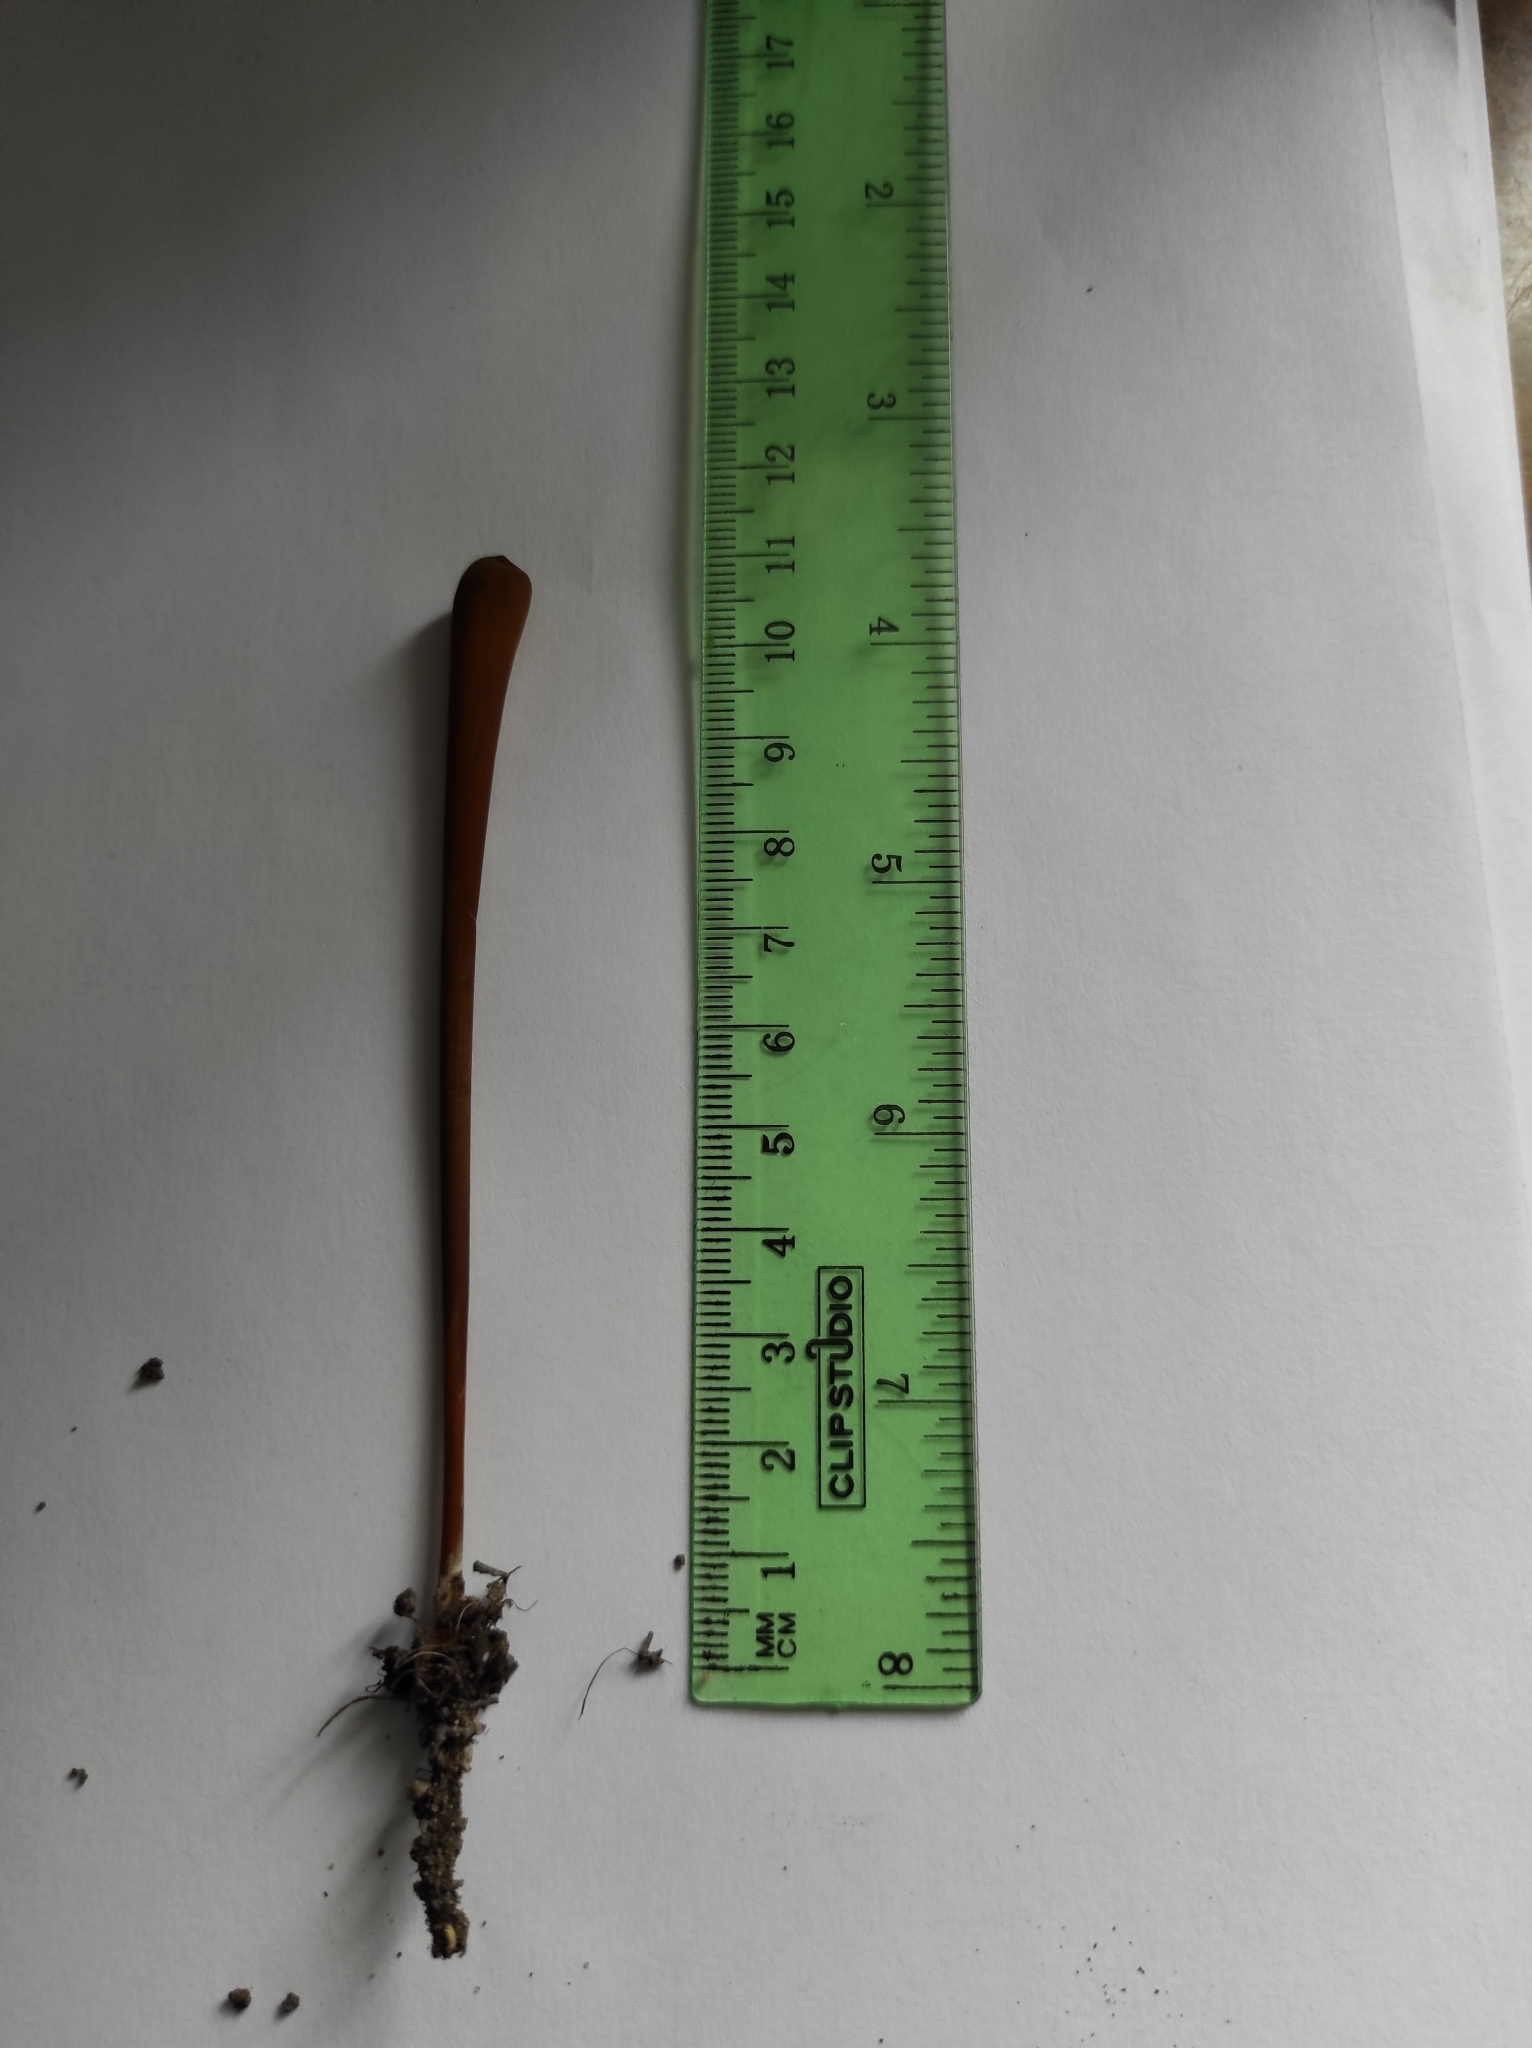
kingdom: Fungi
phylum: Basidiomycota
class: Agaricomycetes
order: Agaricales
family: Typhulaceae
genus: Typhula
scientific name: Typhula fistulosa
